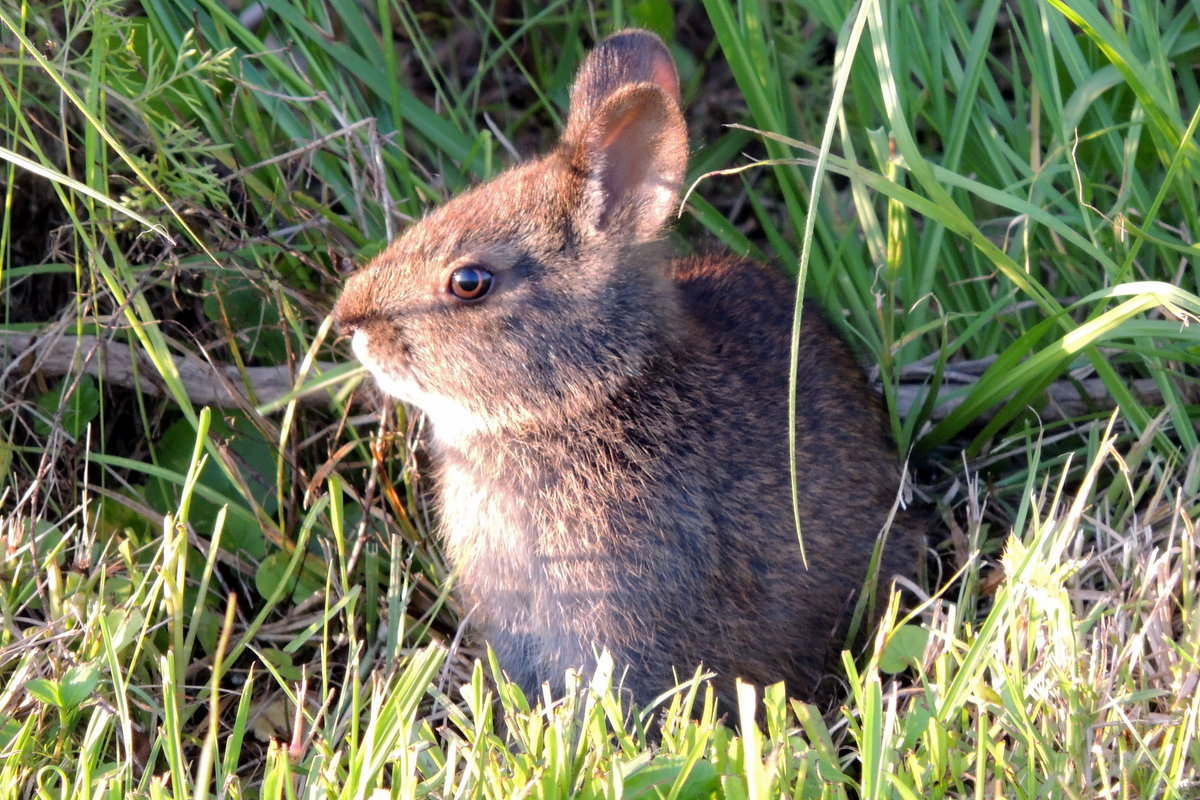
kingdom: Animalia
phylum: Chordata
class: Mammalia
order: Lagomorpha
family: Leporidae
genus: Sylvilagus
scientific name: Sylvilagus palustris
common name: Marsh rabbit
